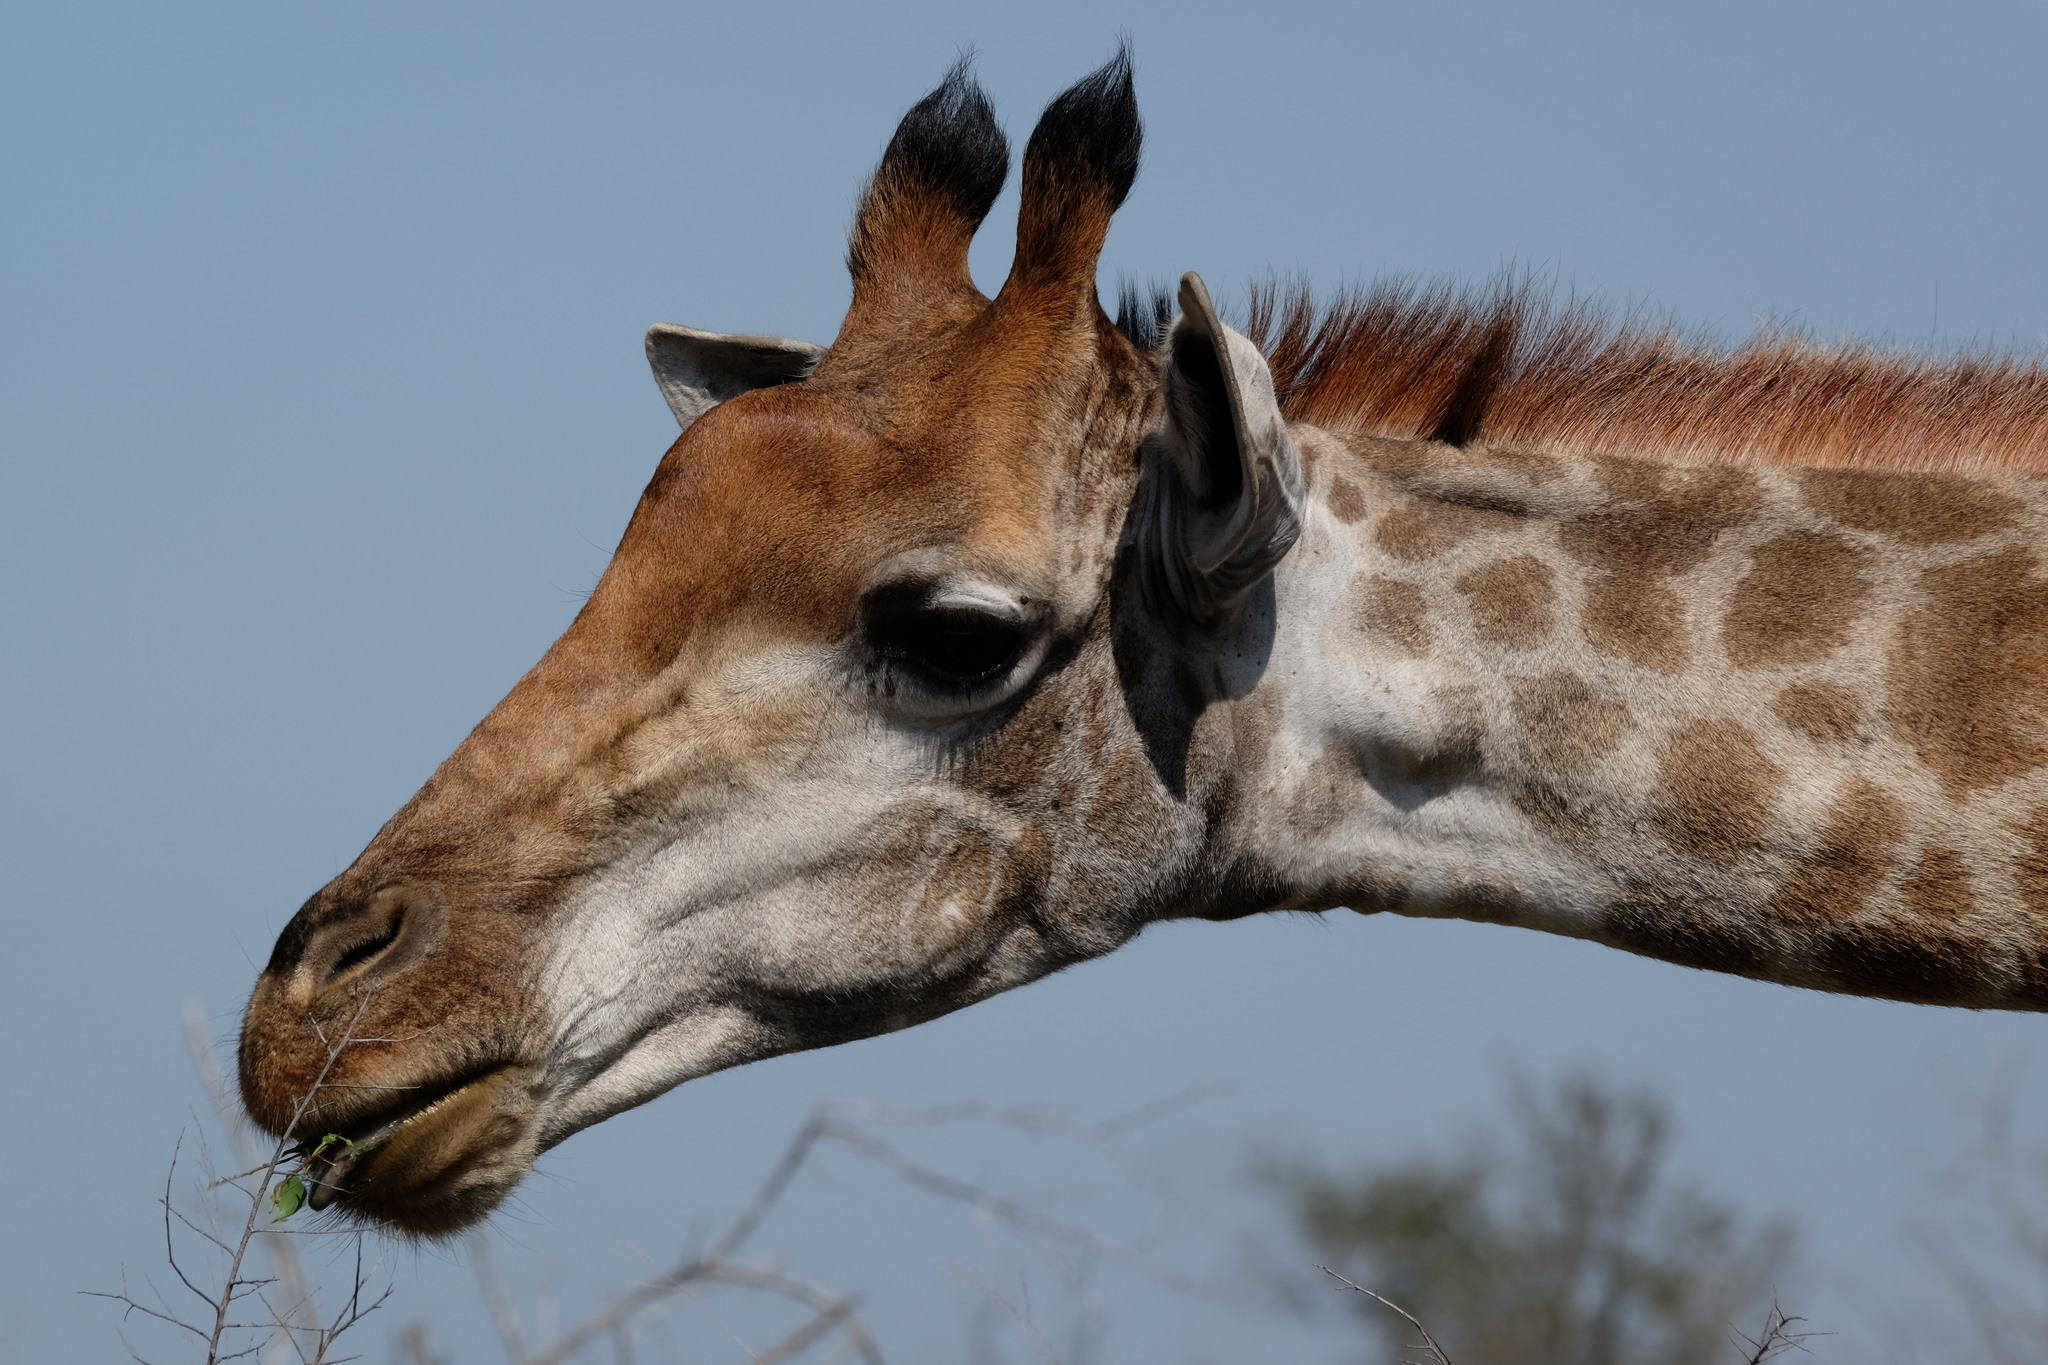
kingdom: Animalia
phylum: Chordata
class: Mammalia
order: Artiodactyla
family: Giraffidae
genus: Giraffa
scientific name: Giraffa giraffa
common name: Southern giraffe
